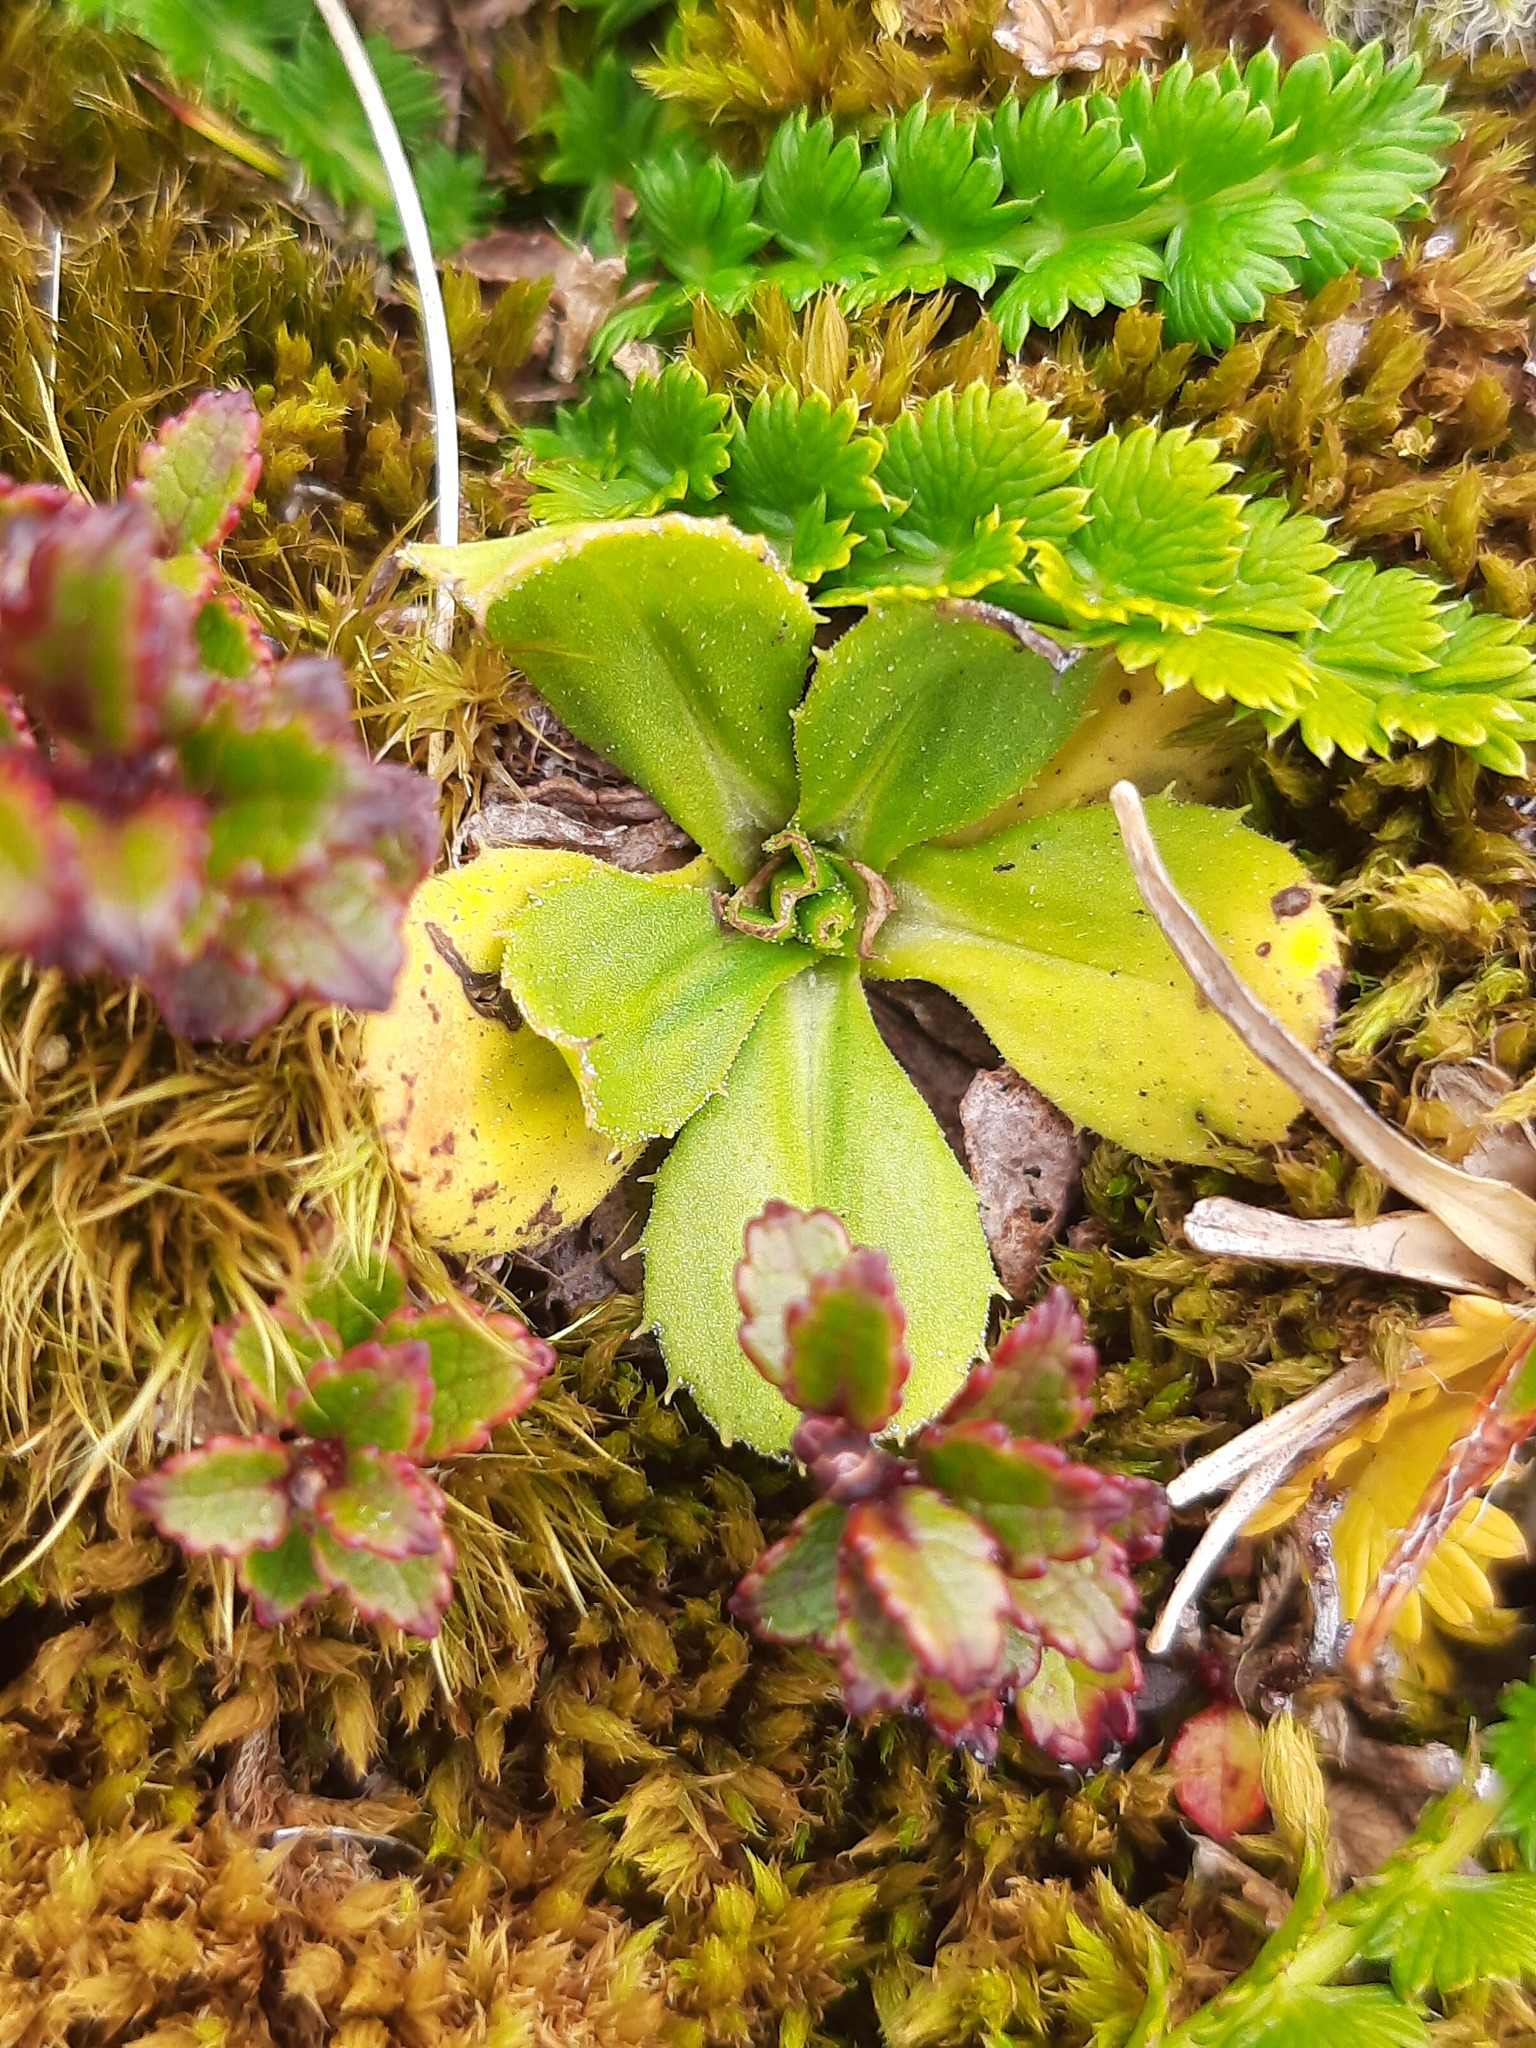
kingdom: Plantae
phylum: Tracheophyta
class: Magnoliopsida
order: Asterales
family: Asteraceae
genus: Celmisia
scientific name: Celmisia glandulosa
